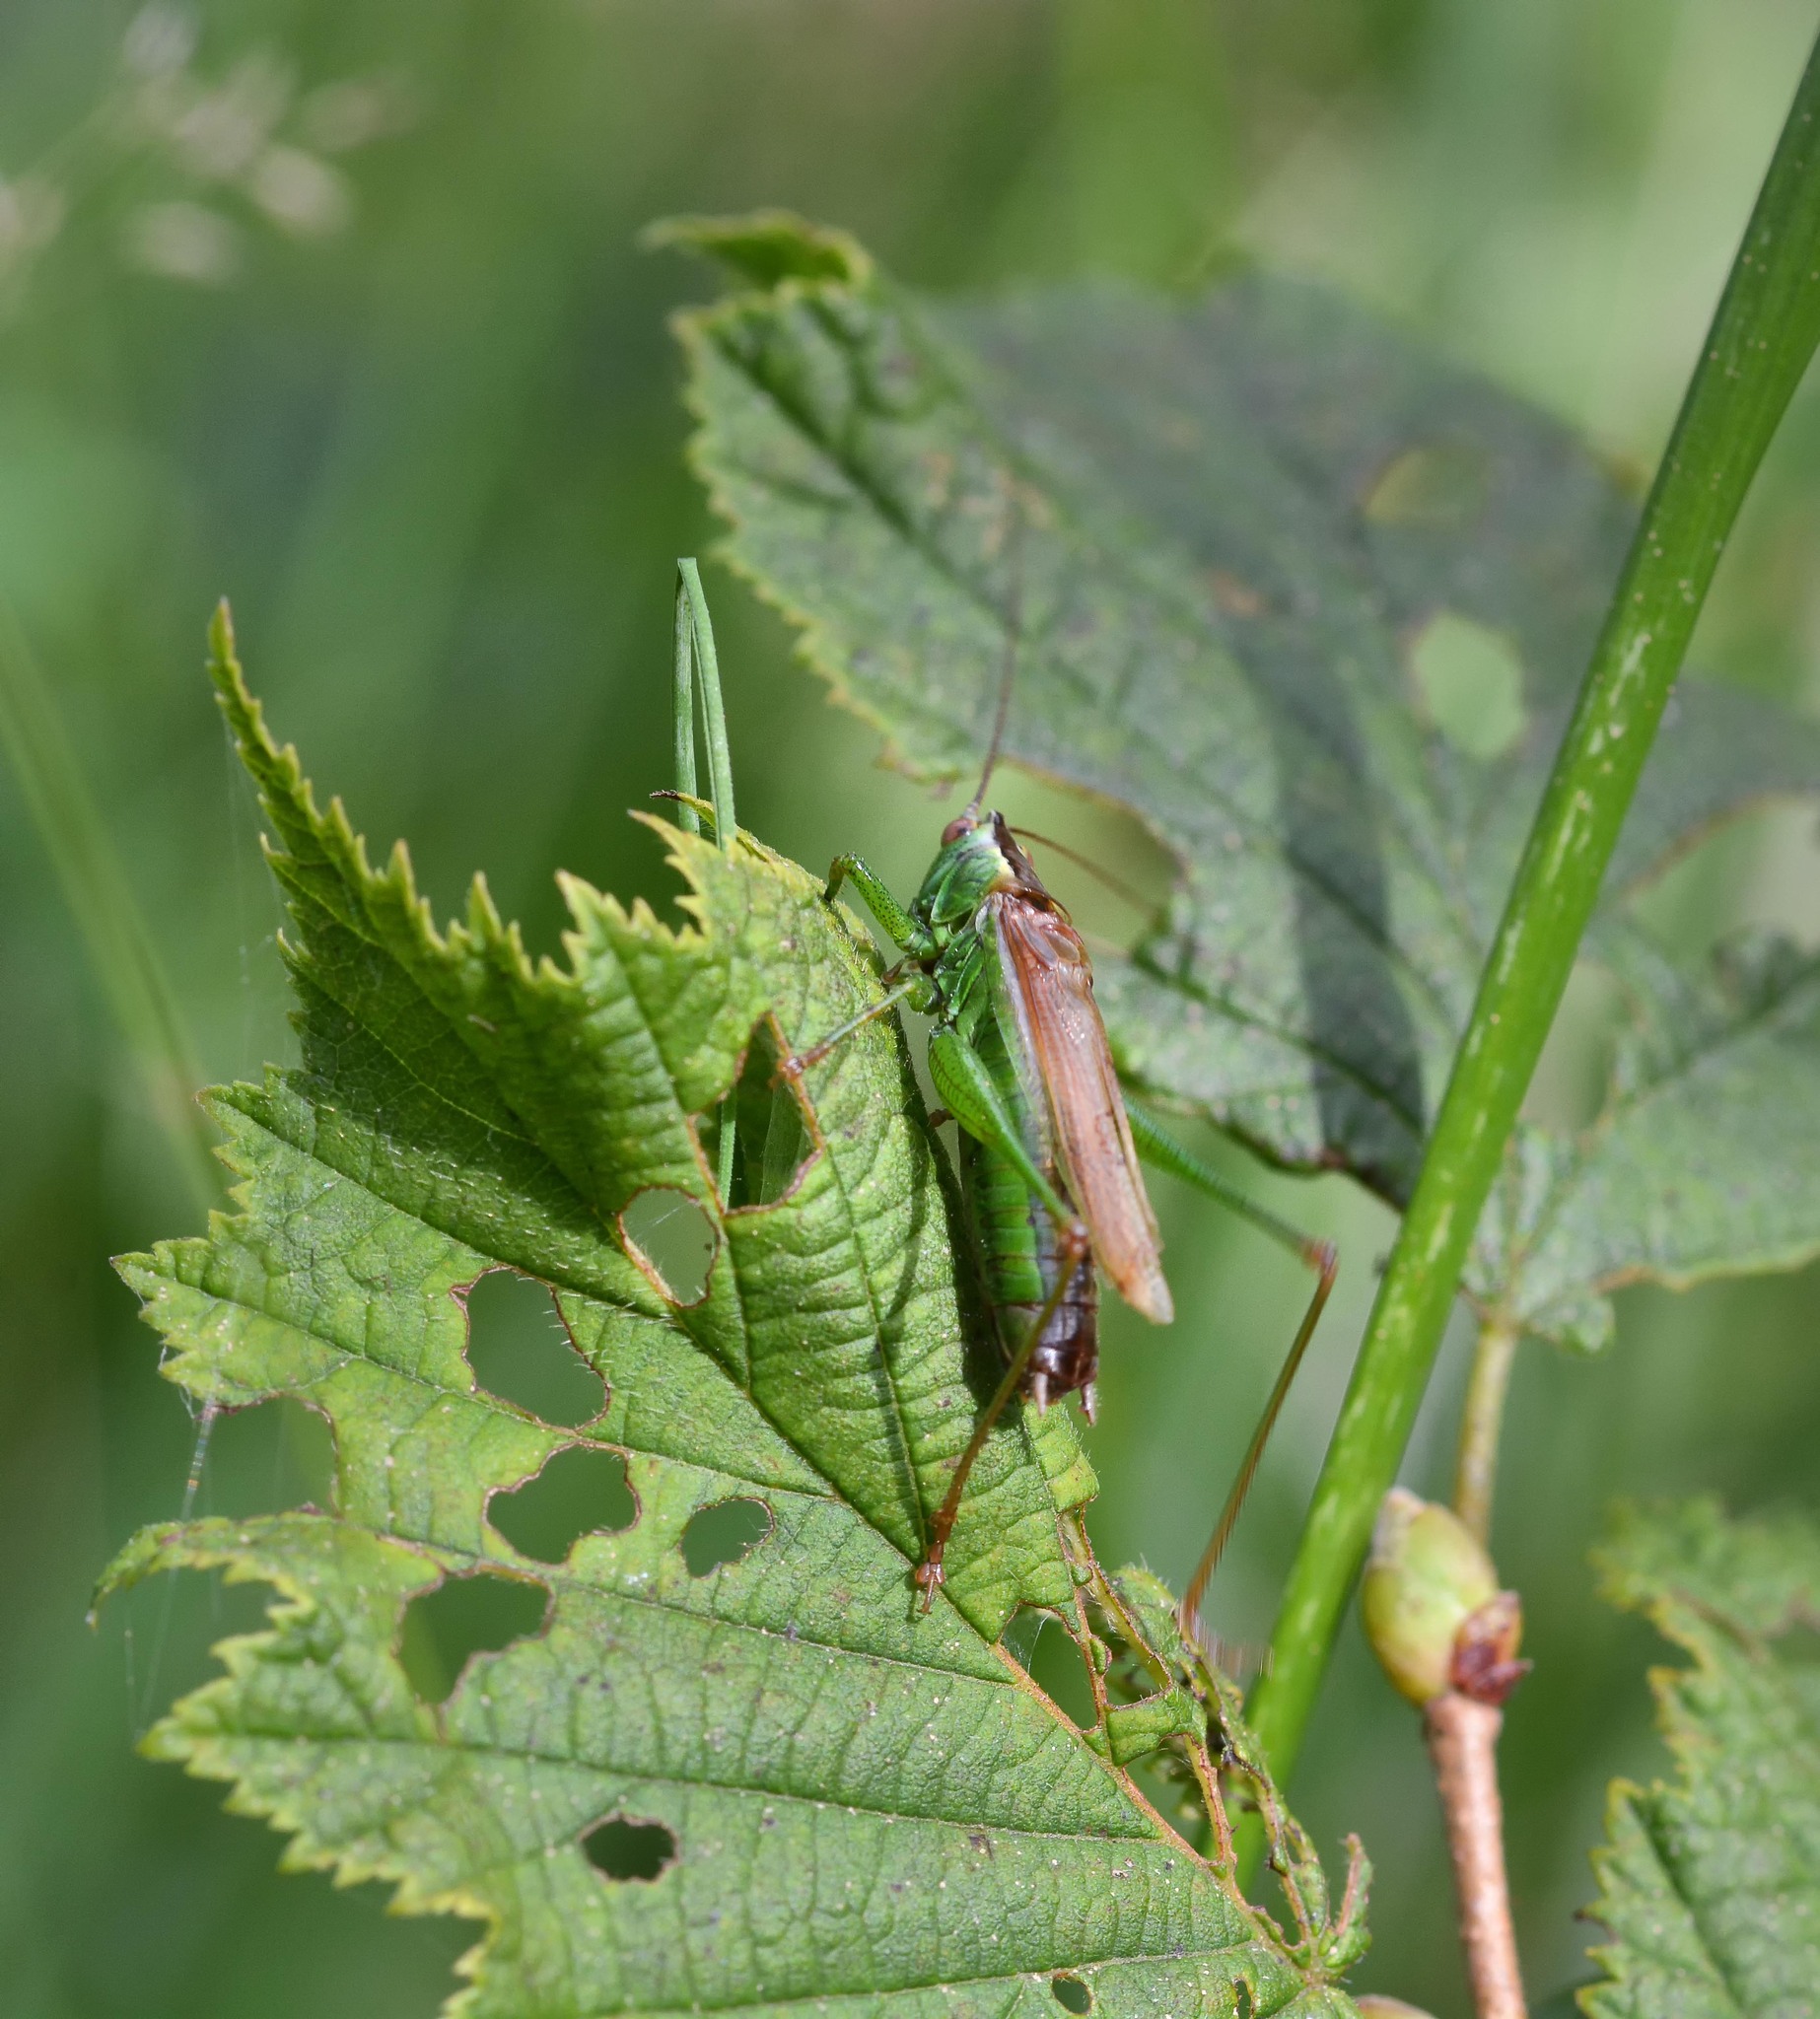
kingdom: Animalia
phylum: Arthropoda
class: Insecta
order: Orthoptera
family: Tettigoniidae
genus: Conocephalus
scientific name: Conocephalus fuscus
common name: Long-winged conehead
